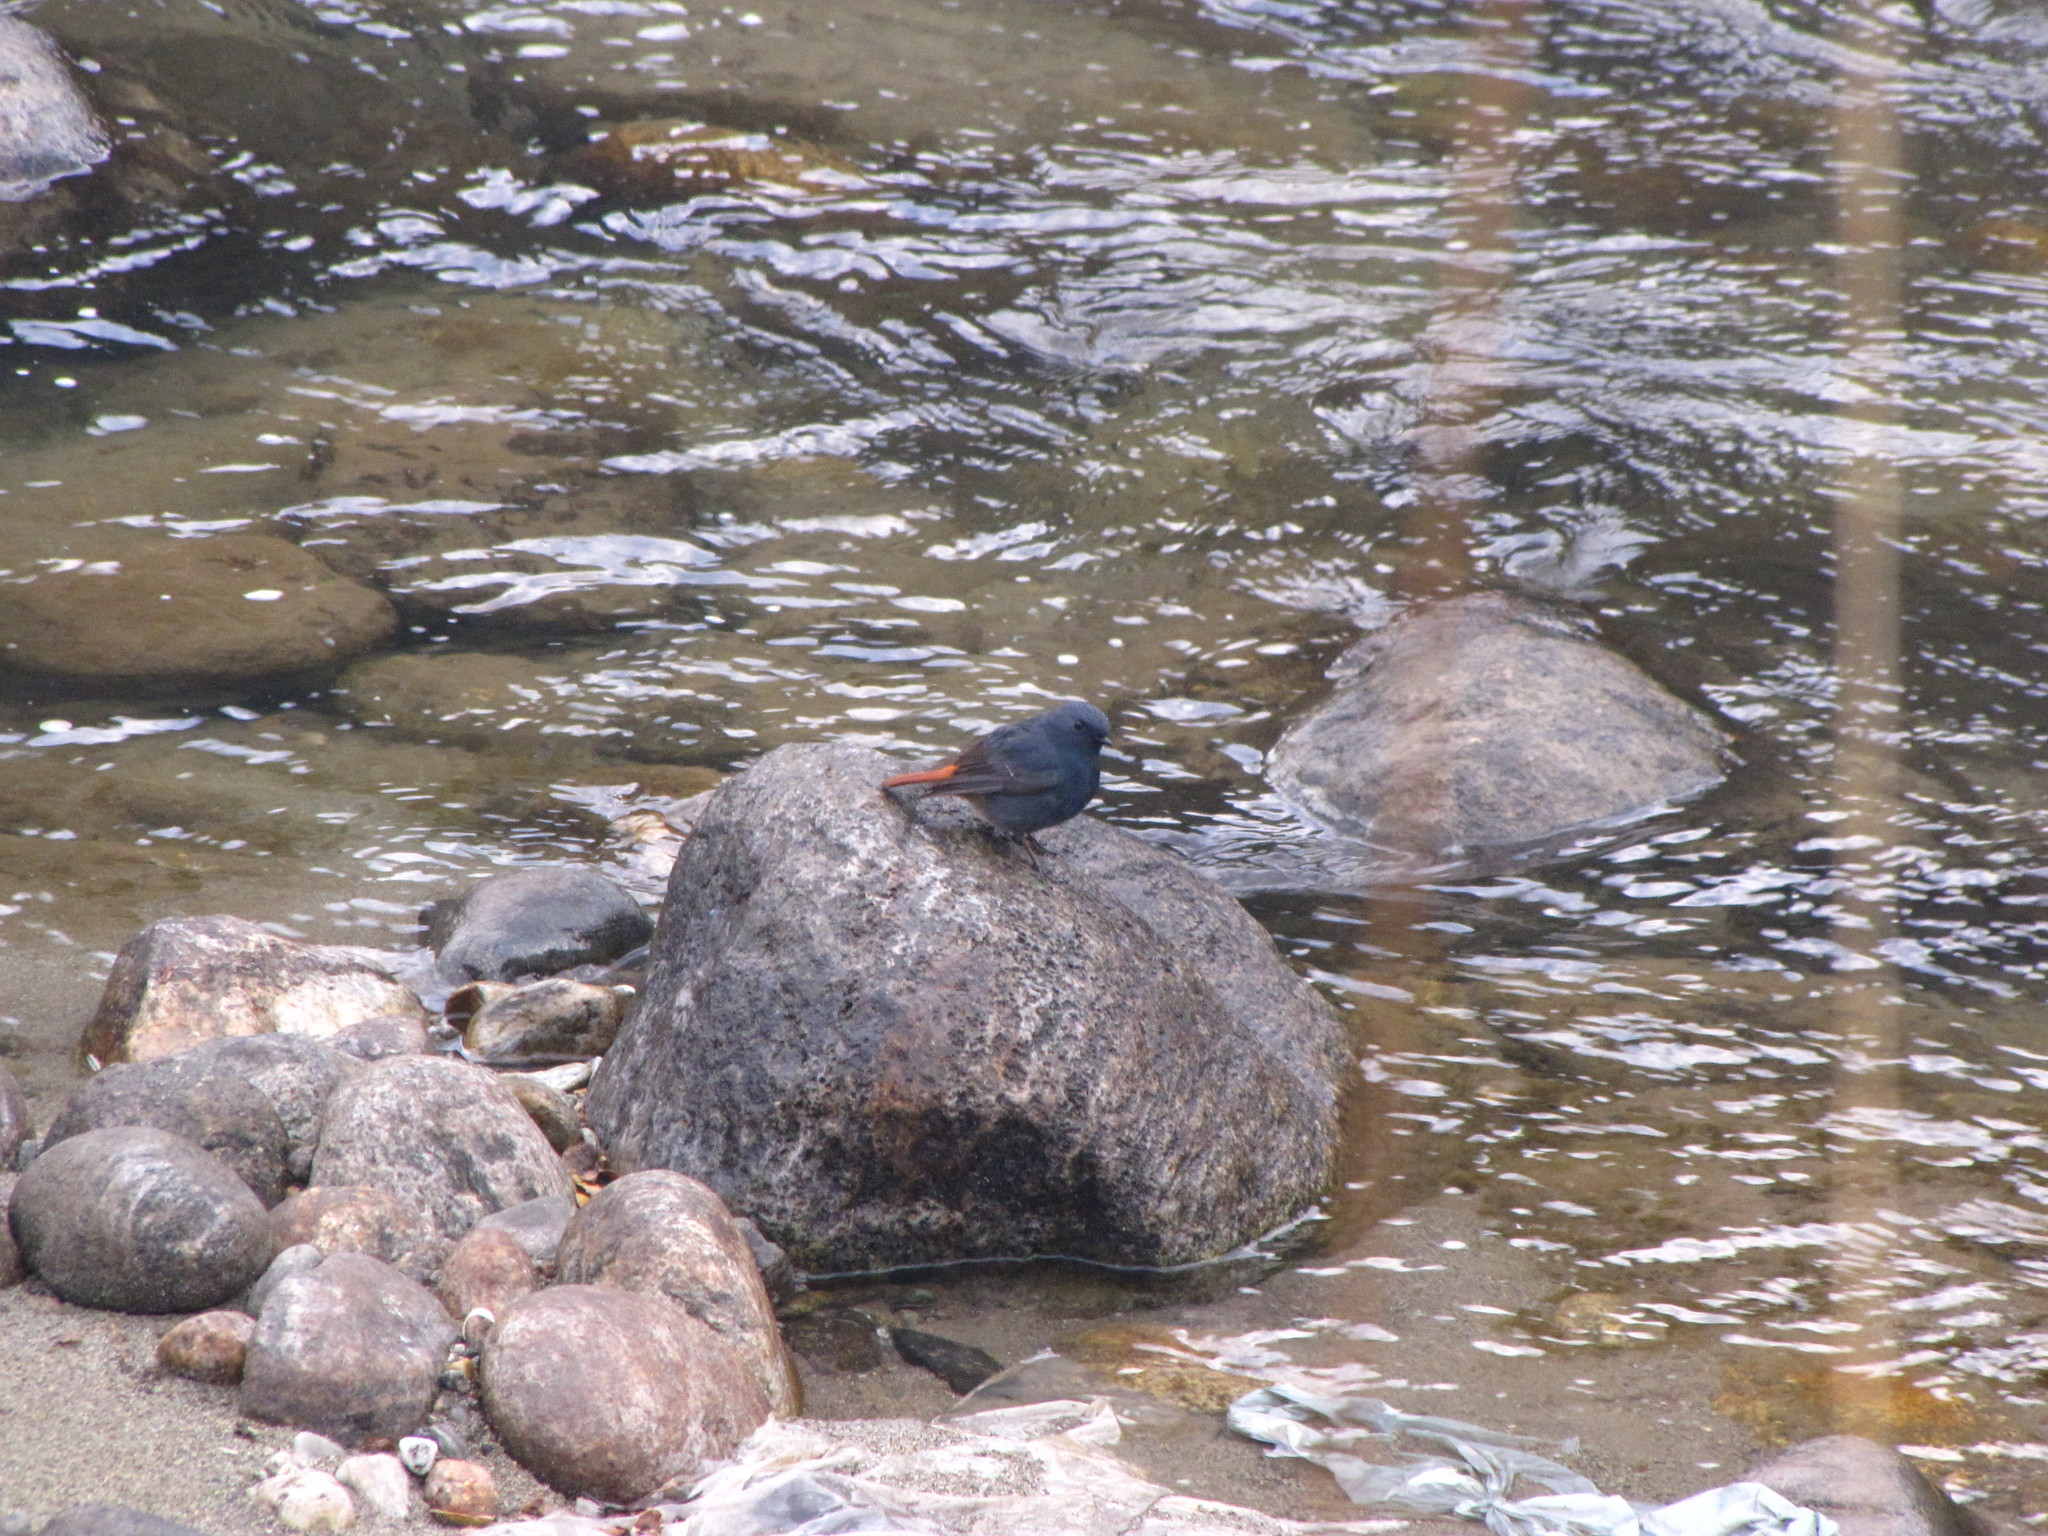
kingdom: Animalia
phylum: Chordata
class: Aves
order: Passeriformes
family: Muscicapidae
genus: Phoenicurus
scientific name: Phoenicurus fuliginosus
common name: Plumbeous water redstart
